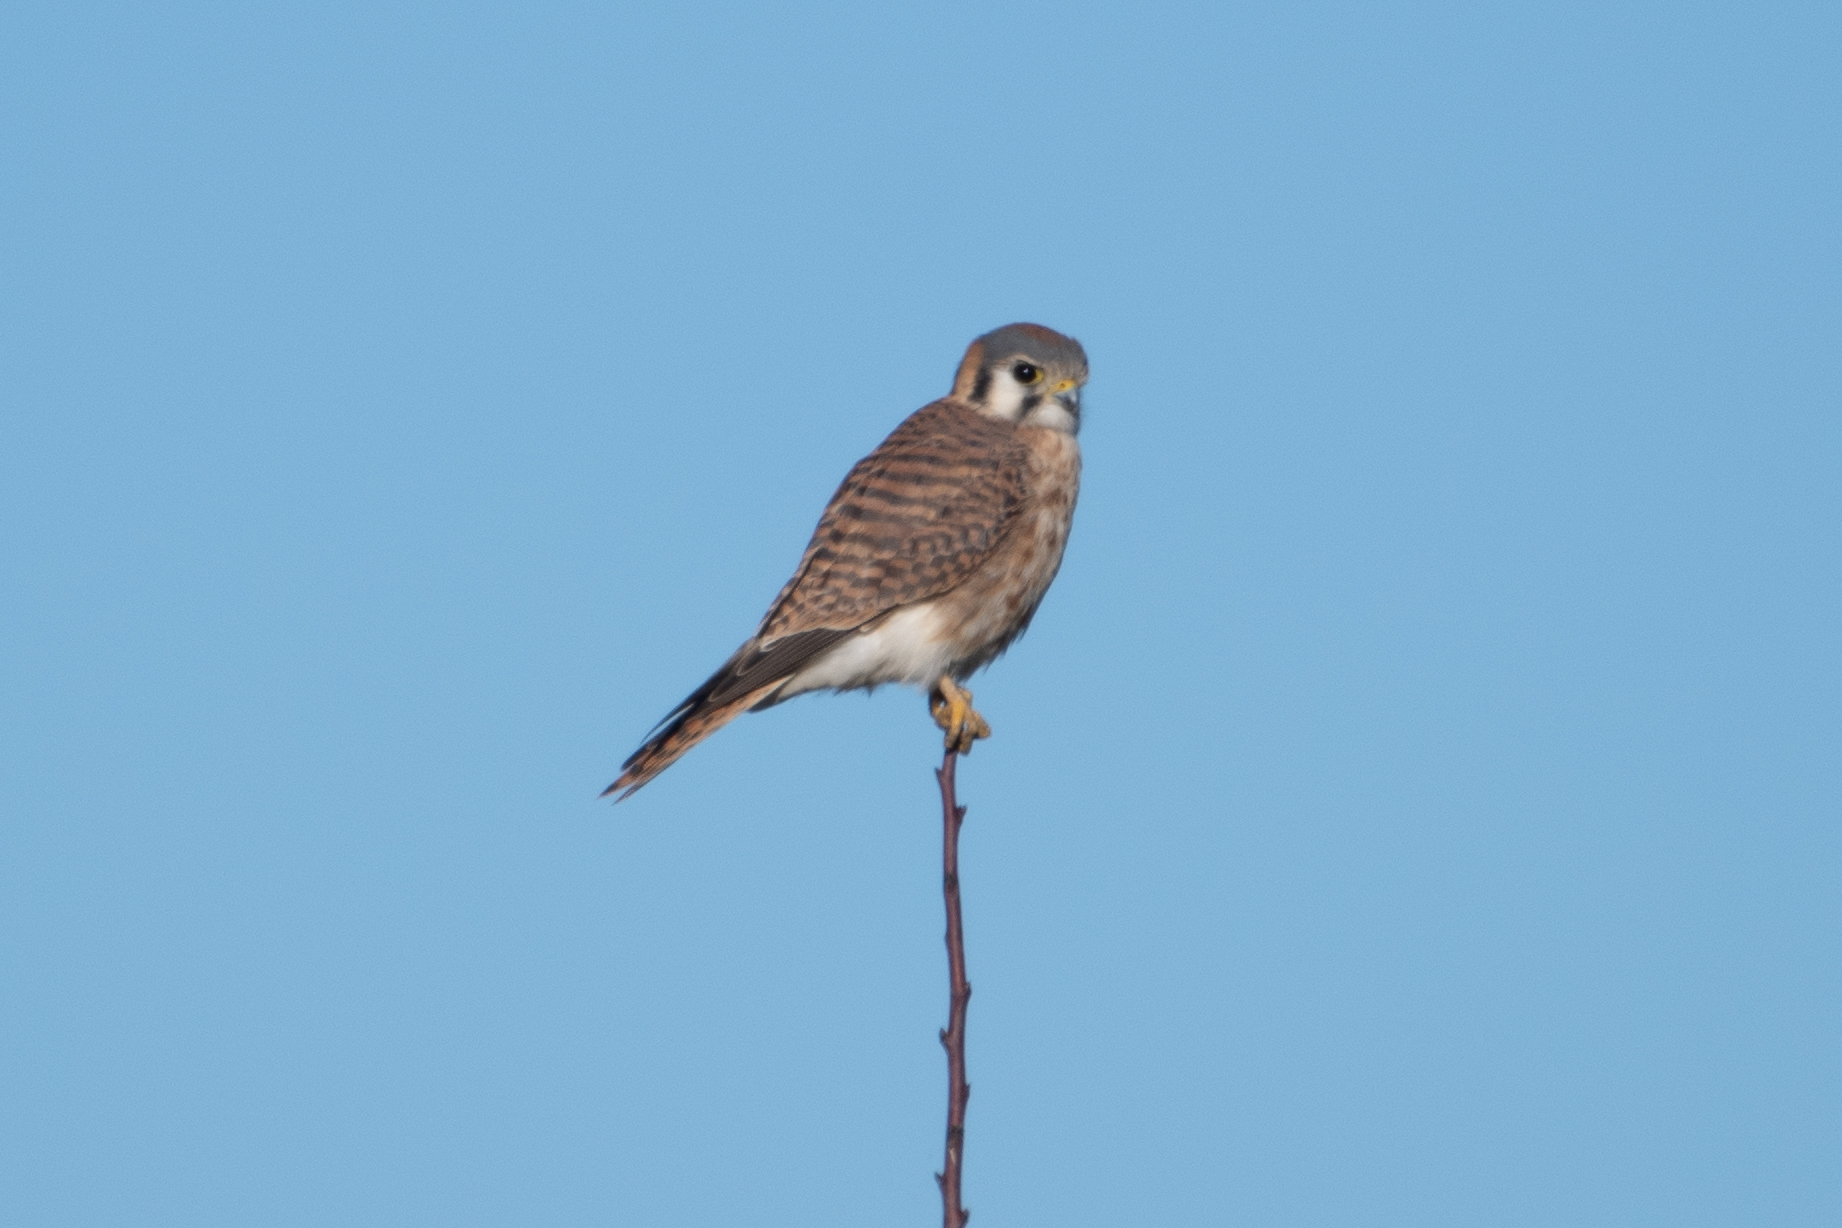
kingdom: Animalia
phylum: Chordata
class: Aves
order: Falconiformes
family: Falconidae
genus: Falco
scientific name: Falco sparverius
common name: American kestrel
